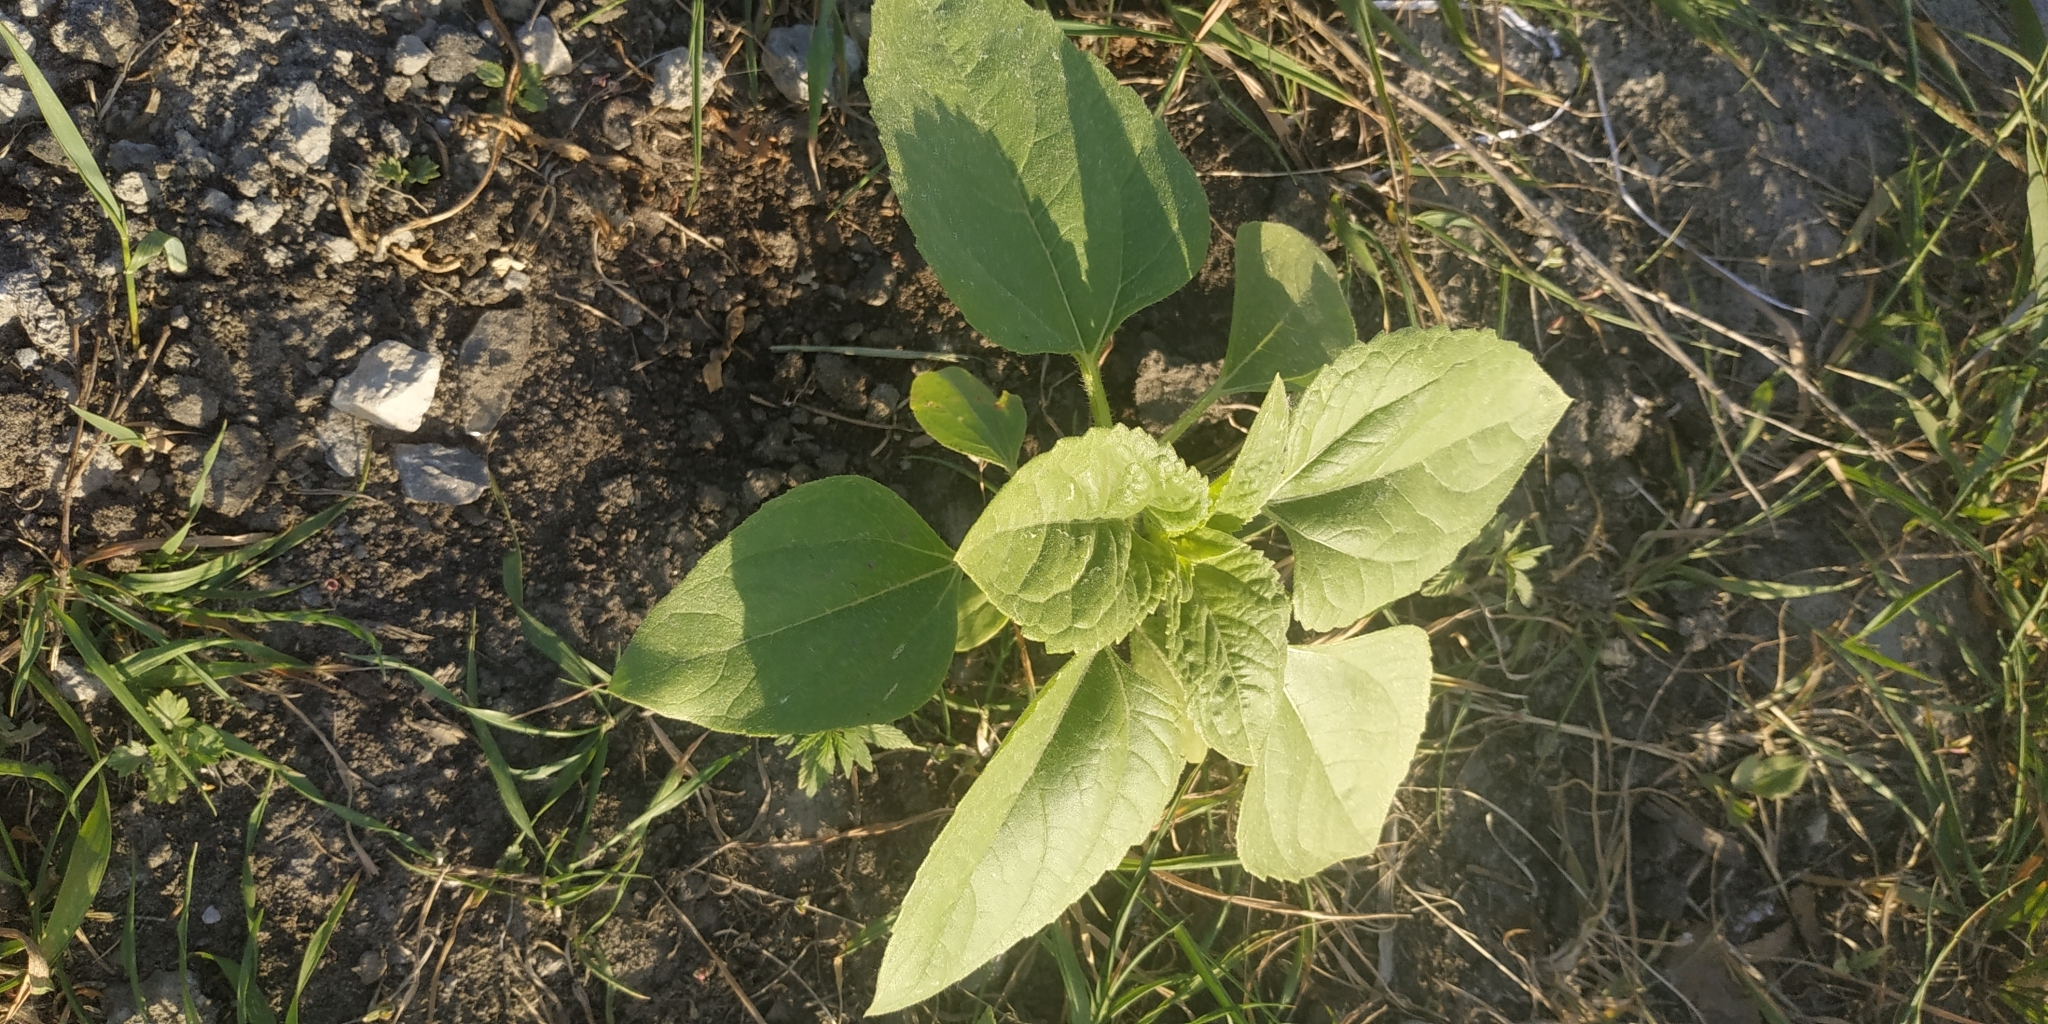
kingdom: Plantae
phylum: Tracheophyta
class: Magnoliopsida
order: Asterales
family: Asteraceae
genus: Helianthus
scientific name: Helianthus annuus
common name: Sunflower
